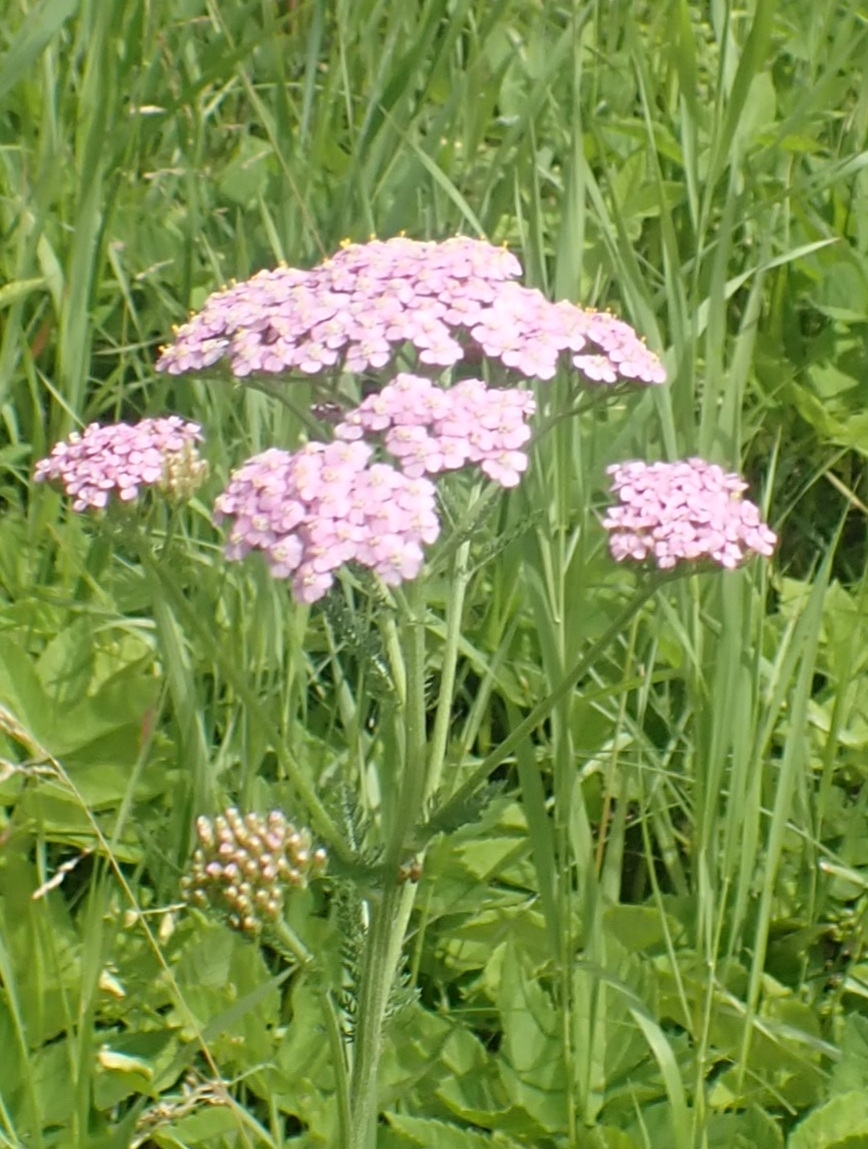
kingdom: Plantae
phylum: Tracheophyta
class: Magnoliopsida
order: Asterales
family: Asteraceae
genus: Achillea
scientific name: Achillea asiatica
